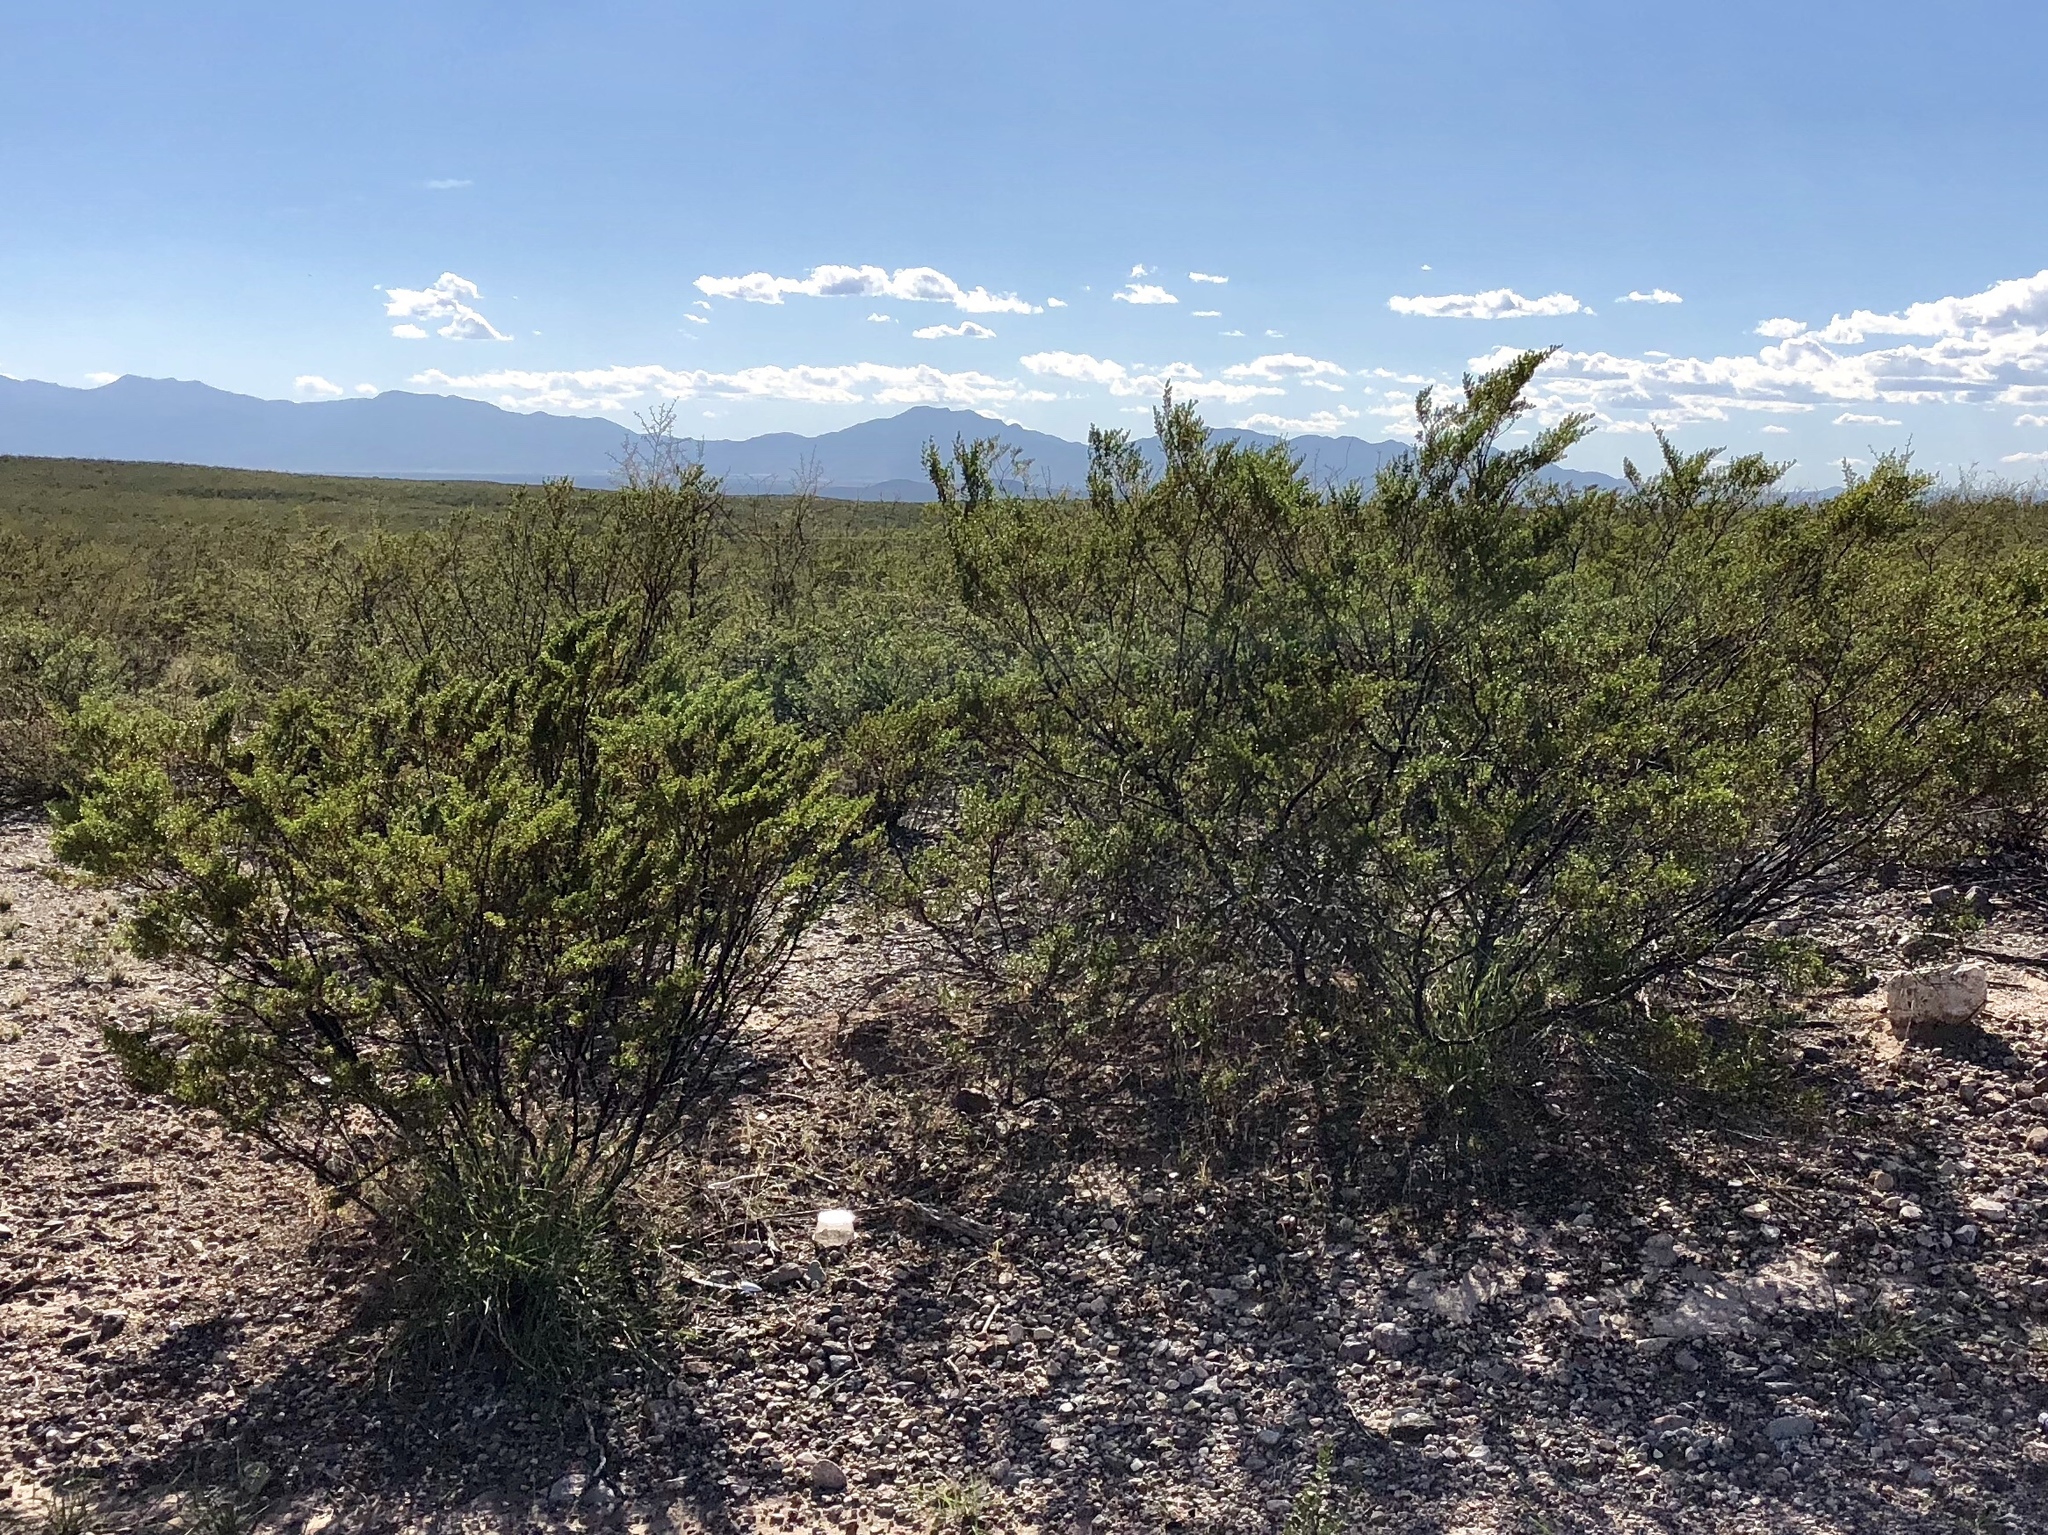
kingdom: Plantae
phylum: Tracheophyta
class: Magnoliopsida
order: Zygophyllales
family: Zygophyllaceae
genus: Larrea
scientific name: Larrea tridentata
